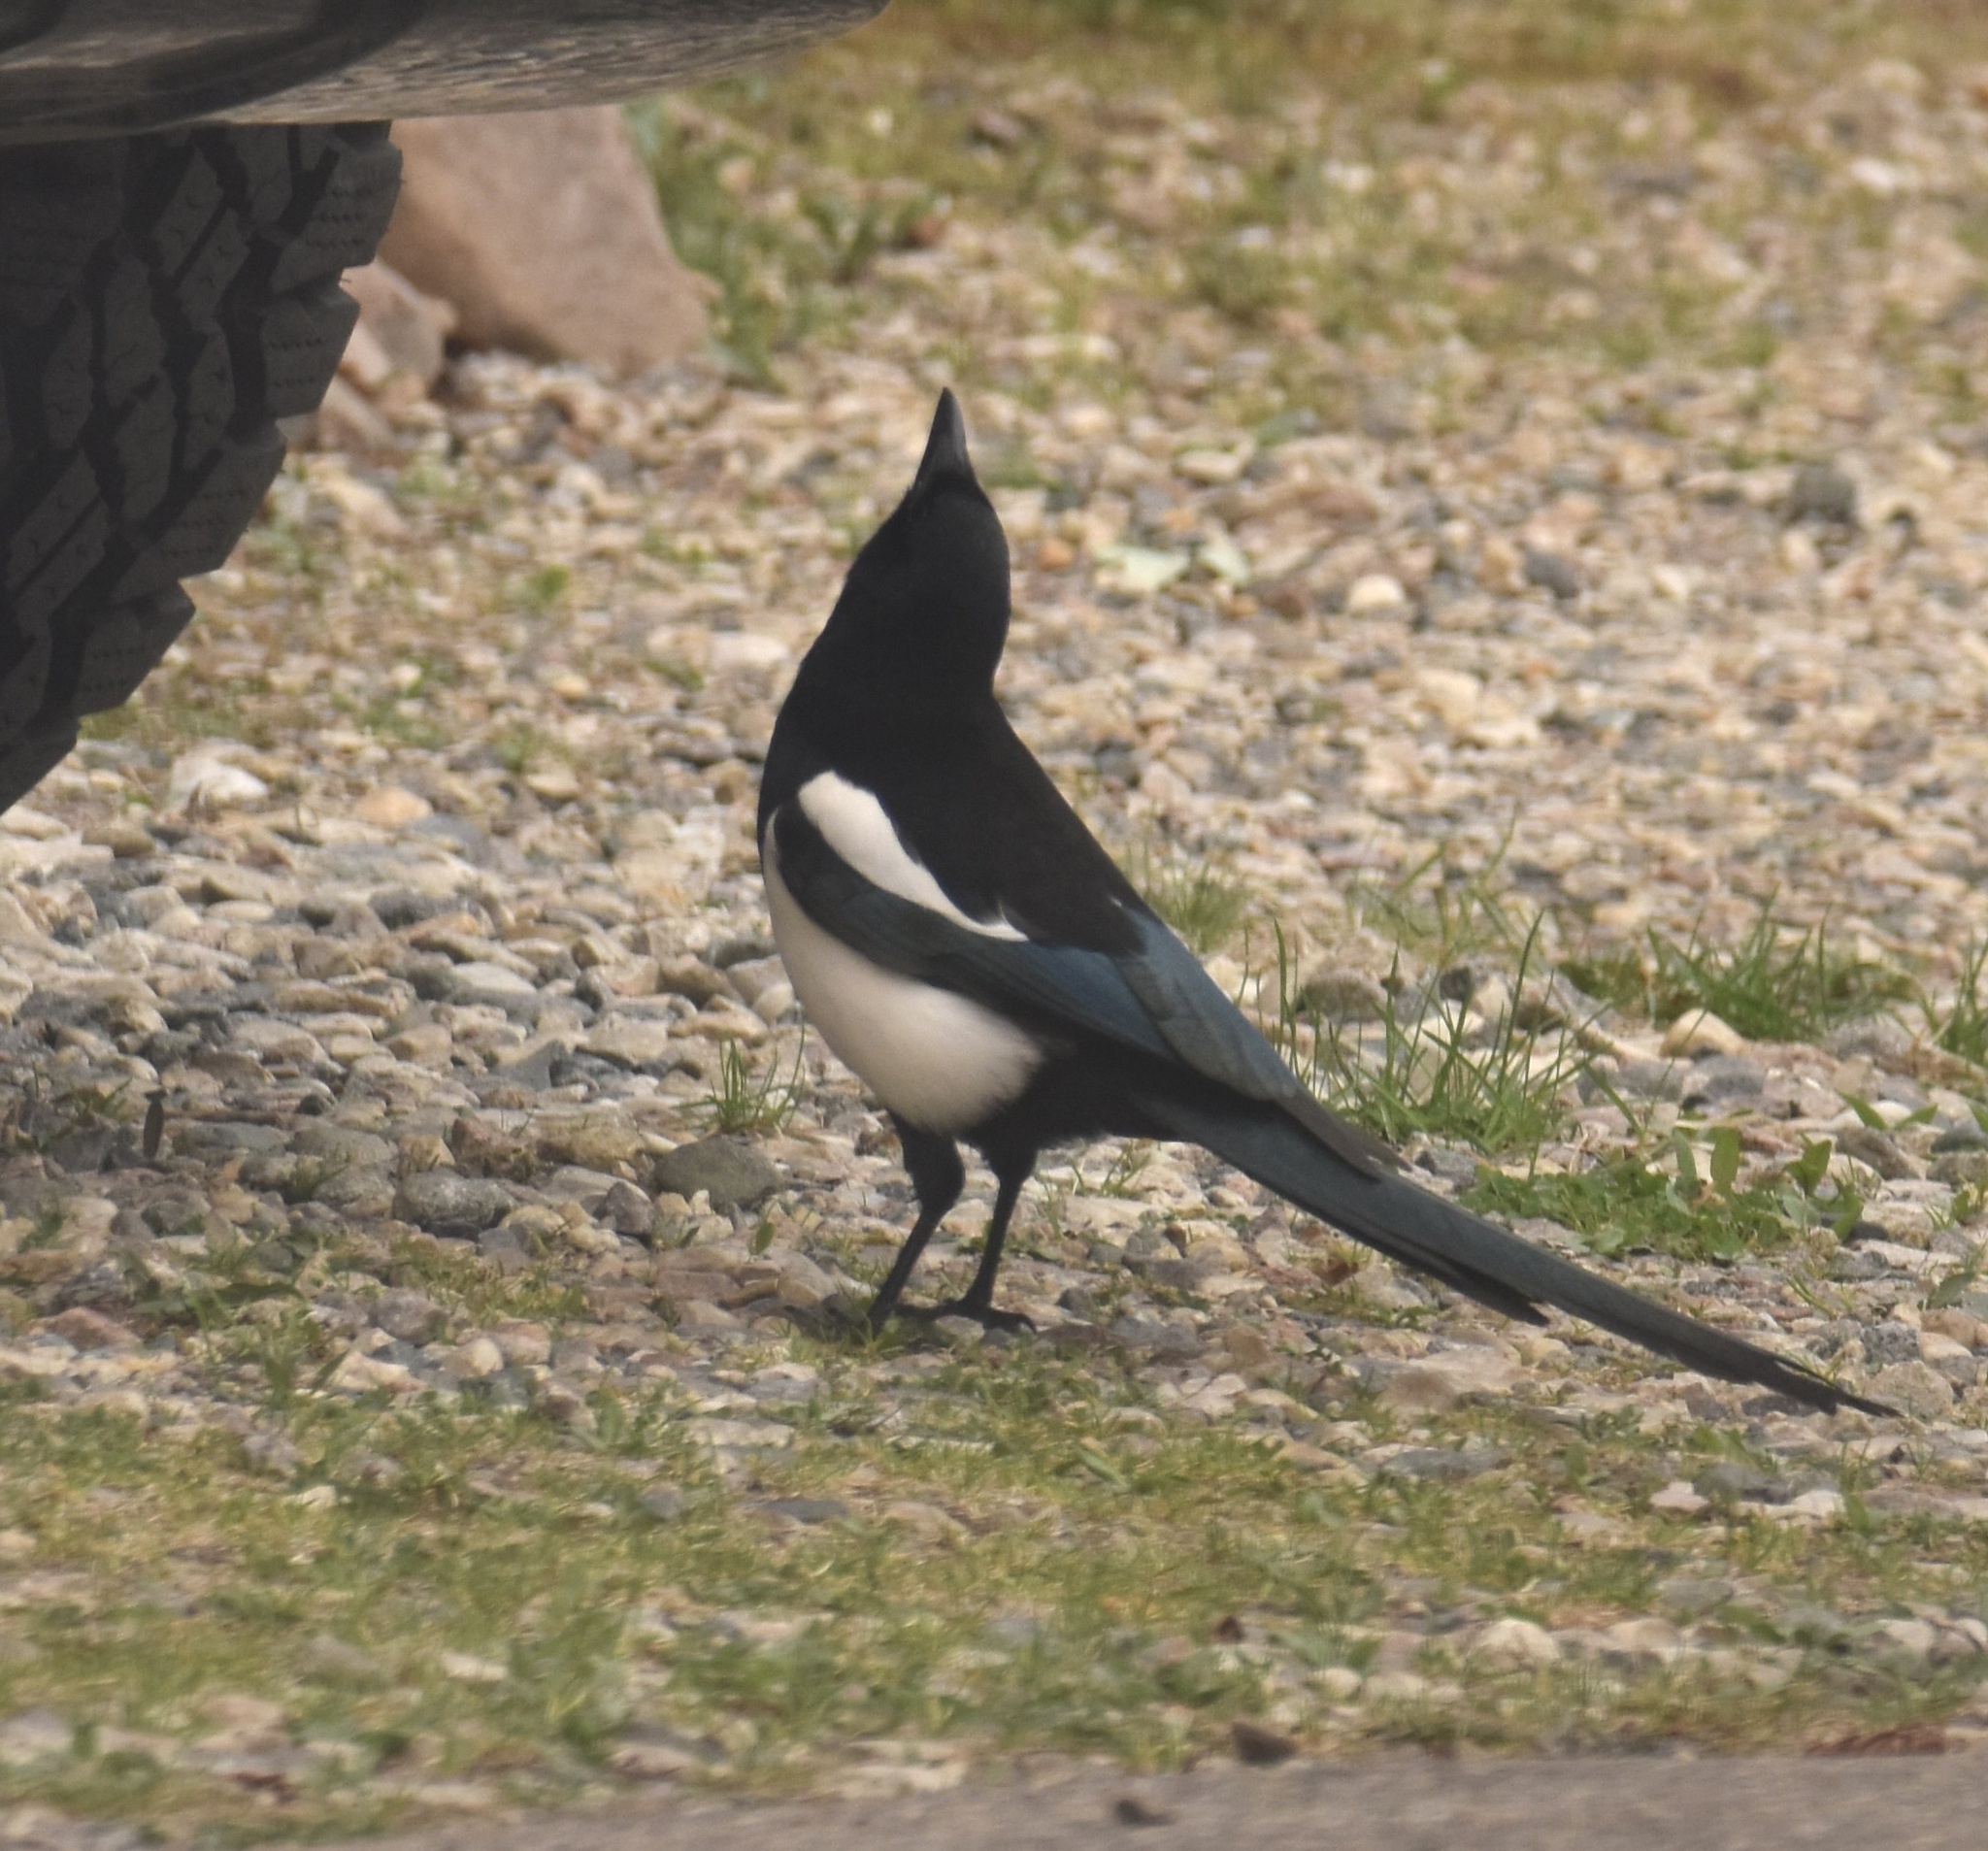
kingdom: Animalia
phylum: Chordata
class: Aves
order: Passeriformes
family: Corvidae
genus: Pica
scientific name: Pica hudsonia
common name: Black-billed magpie
